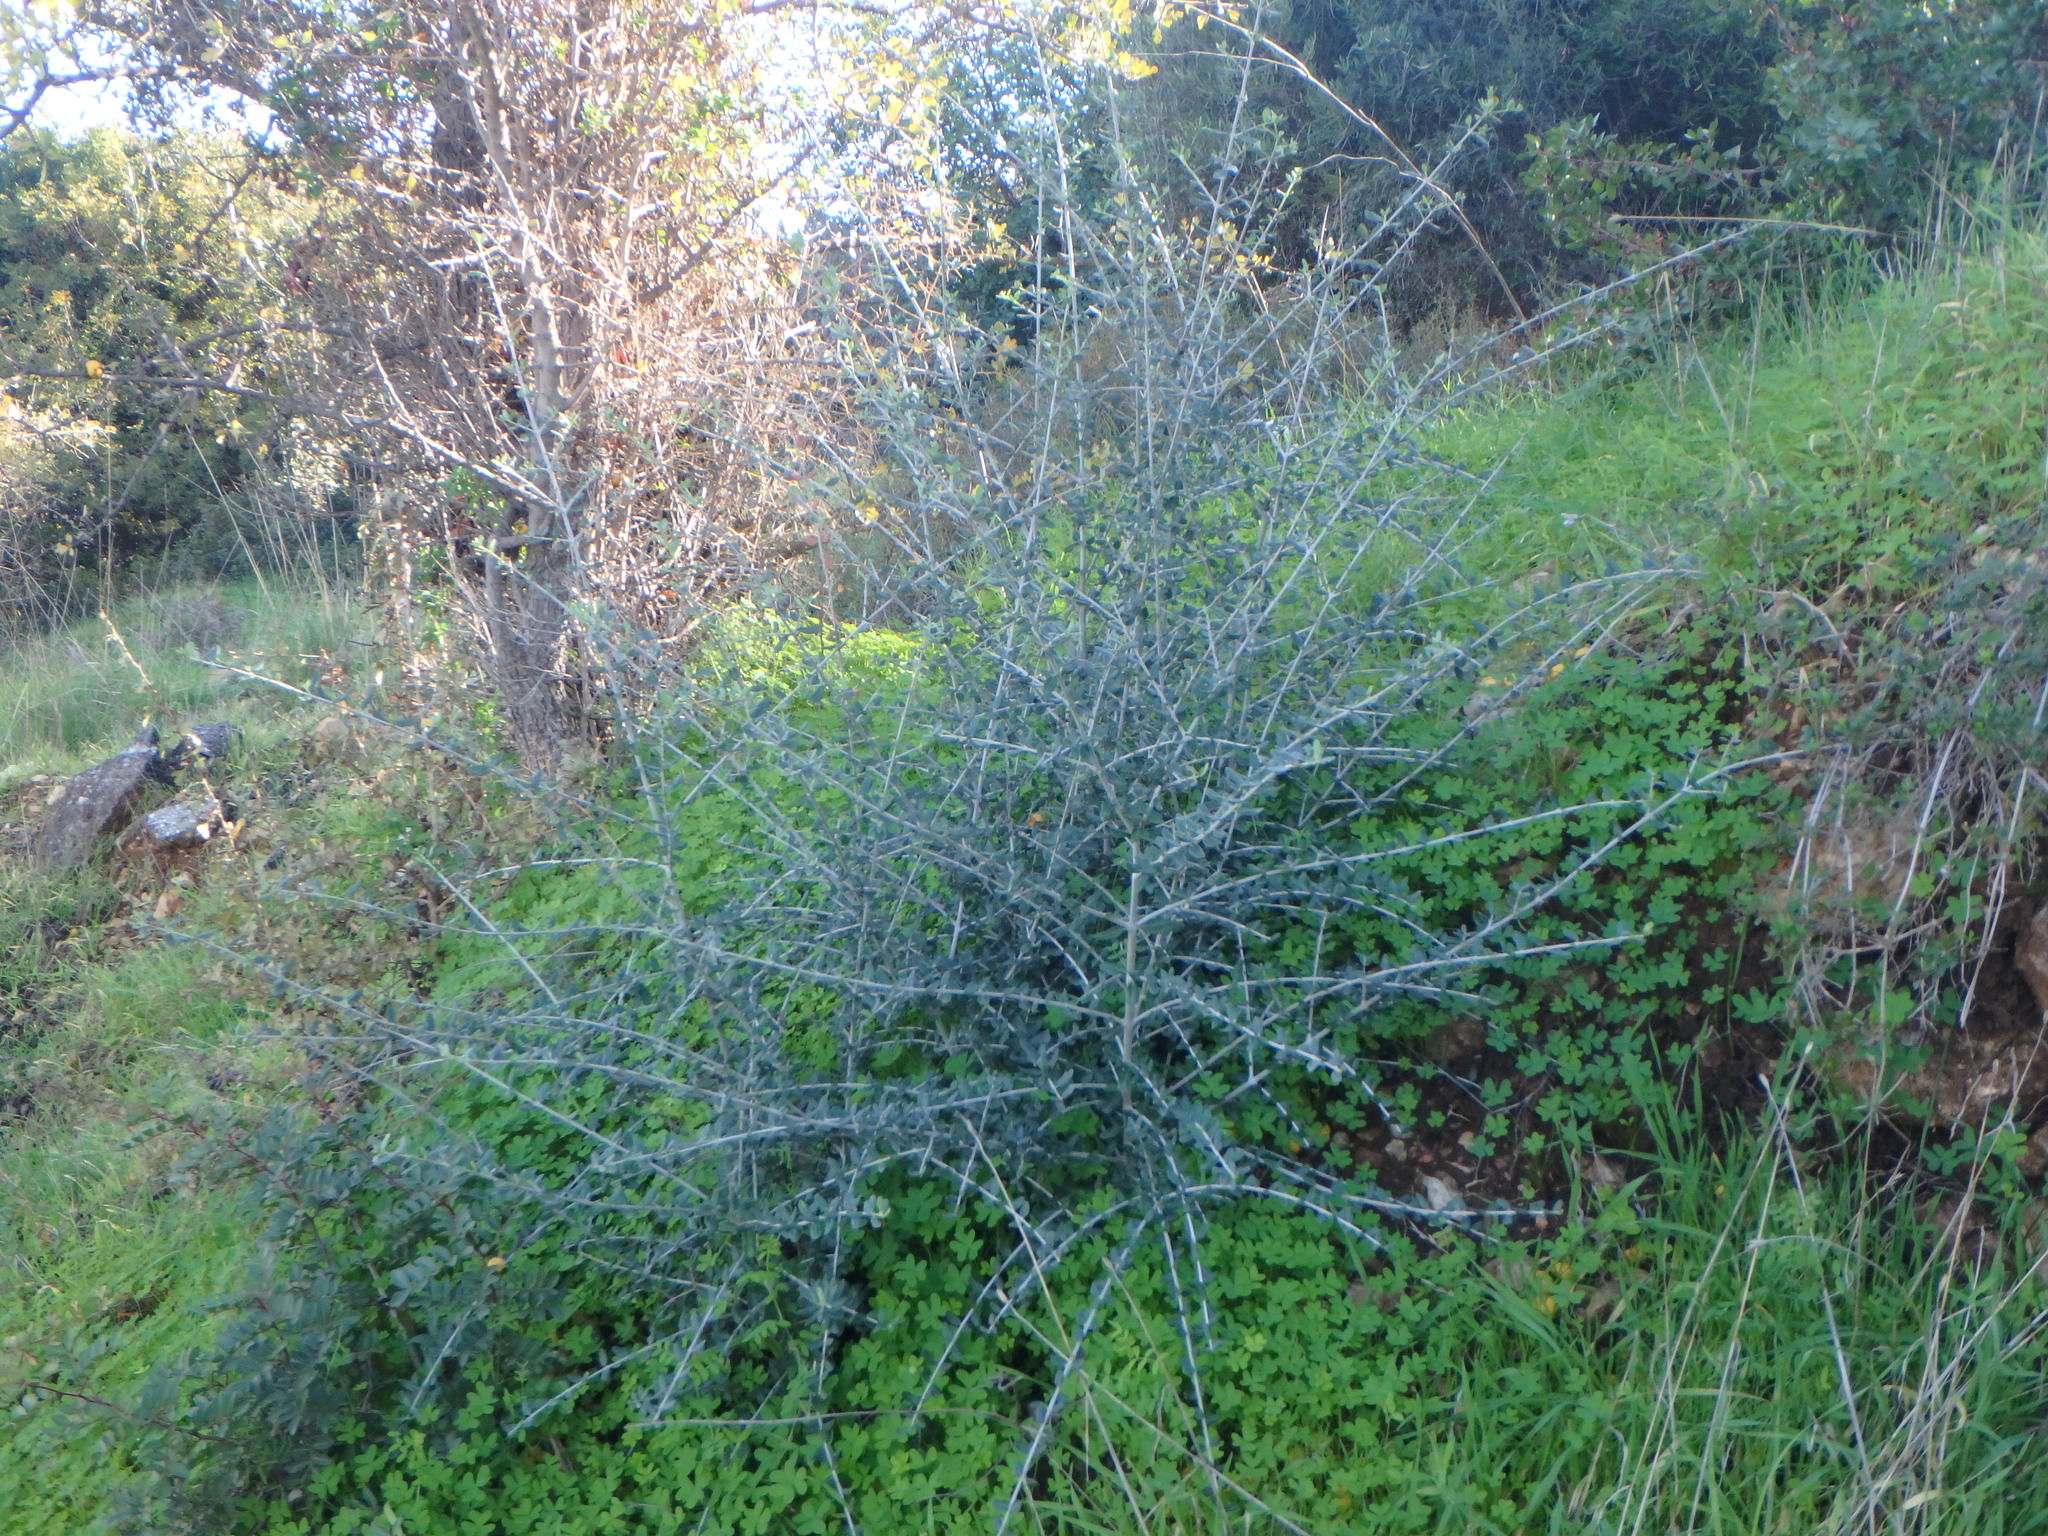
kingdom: Plantae
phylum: Tracheophyta
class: Magnoliopsida
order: Lamiales
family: Oleaceae
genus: Olea
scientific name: Olea europaea
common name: Olive
